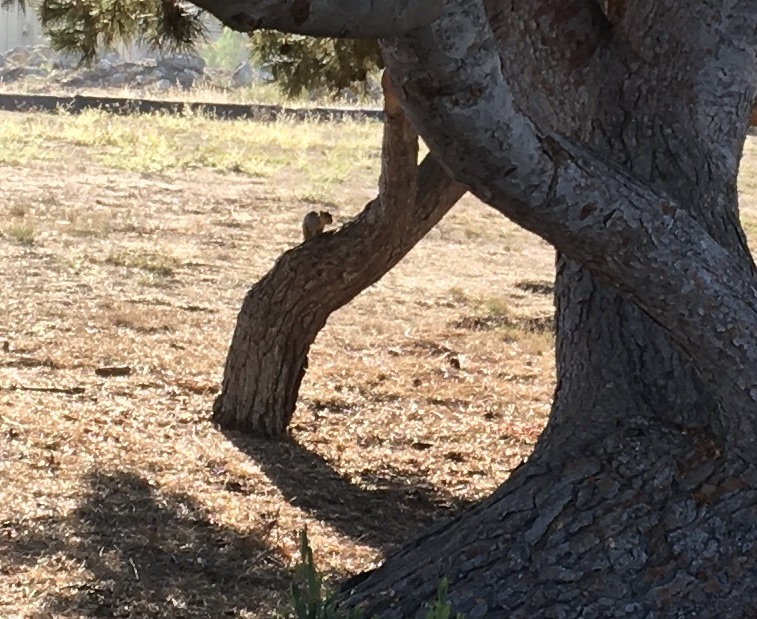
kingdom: Animalia
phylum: Chordata
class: Mammalia
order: Rodentia
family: Sciuridae
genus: Sciurus
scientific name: Sciurus niger
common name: Fox squirrel
